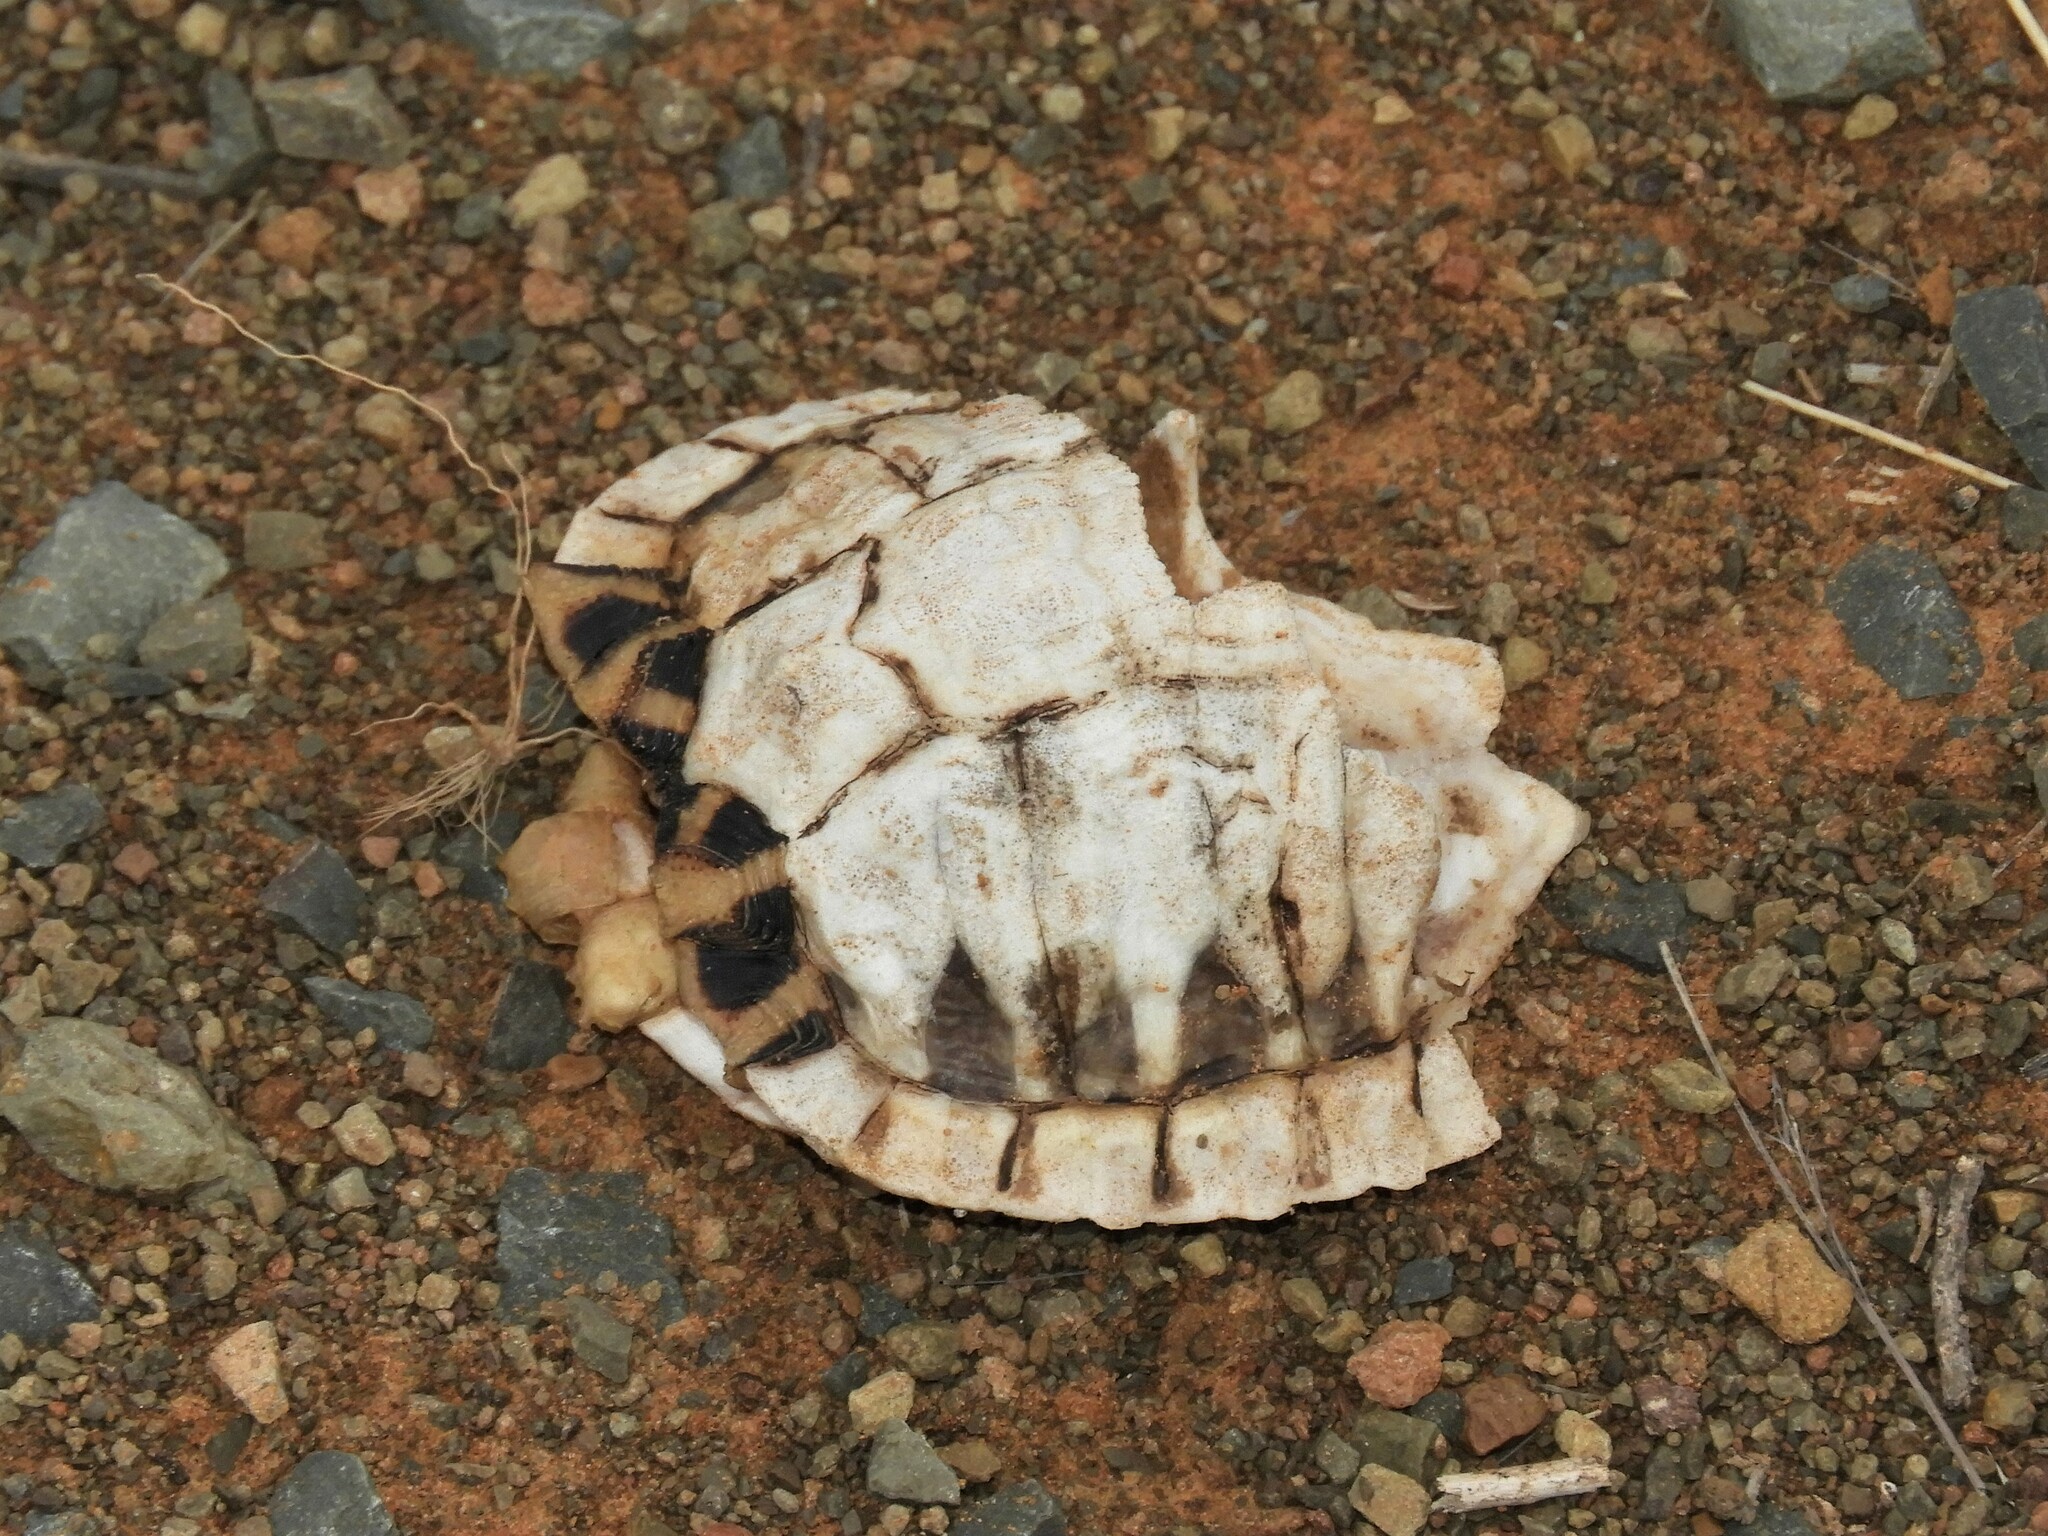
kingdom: Animalia
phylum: Chordata
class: Testudines
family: Testudinidae
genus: Psammobates
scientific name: Psammobates tentorius
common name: Tent tortoise
